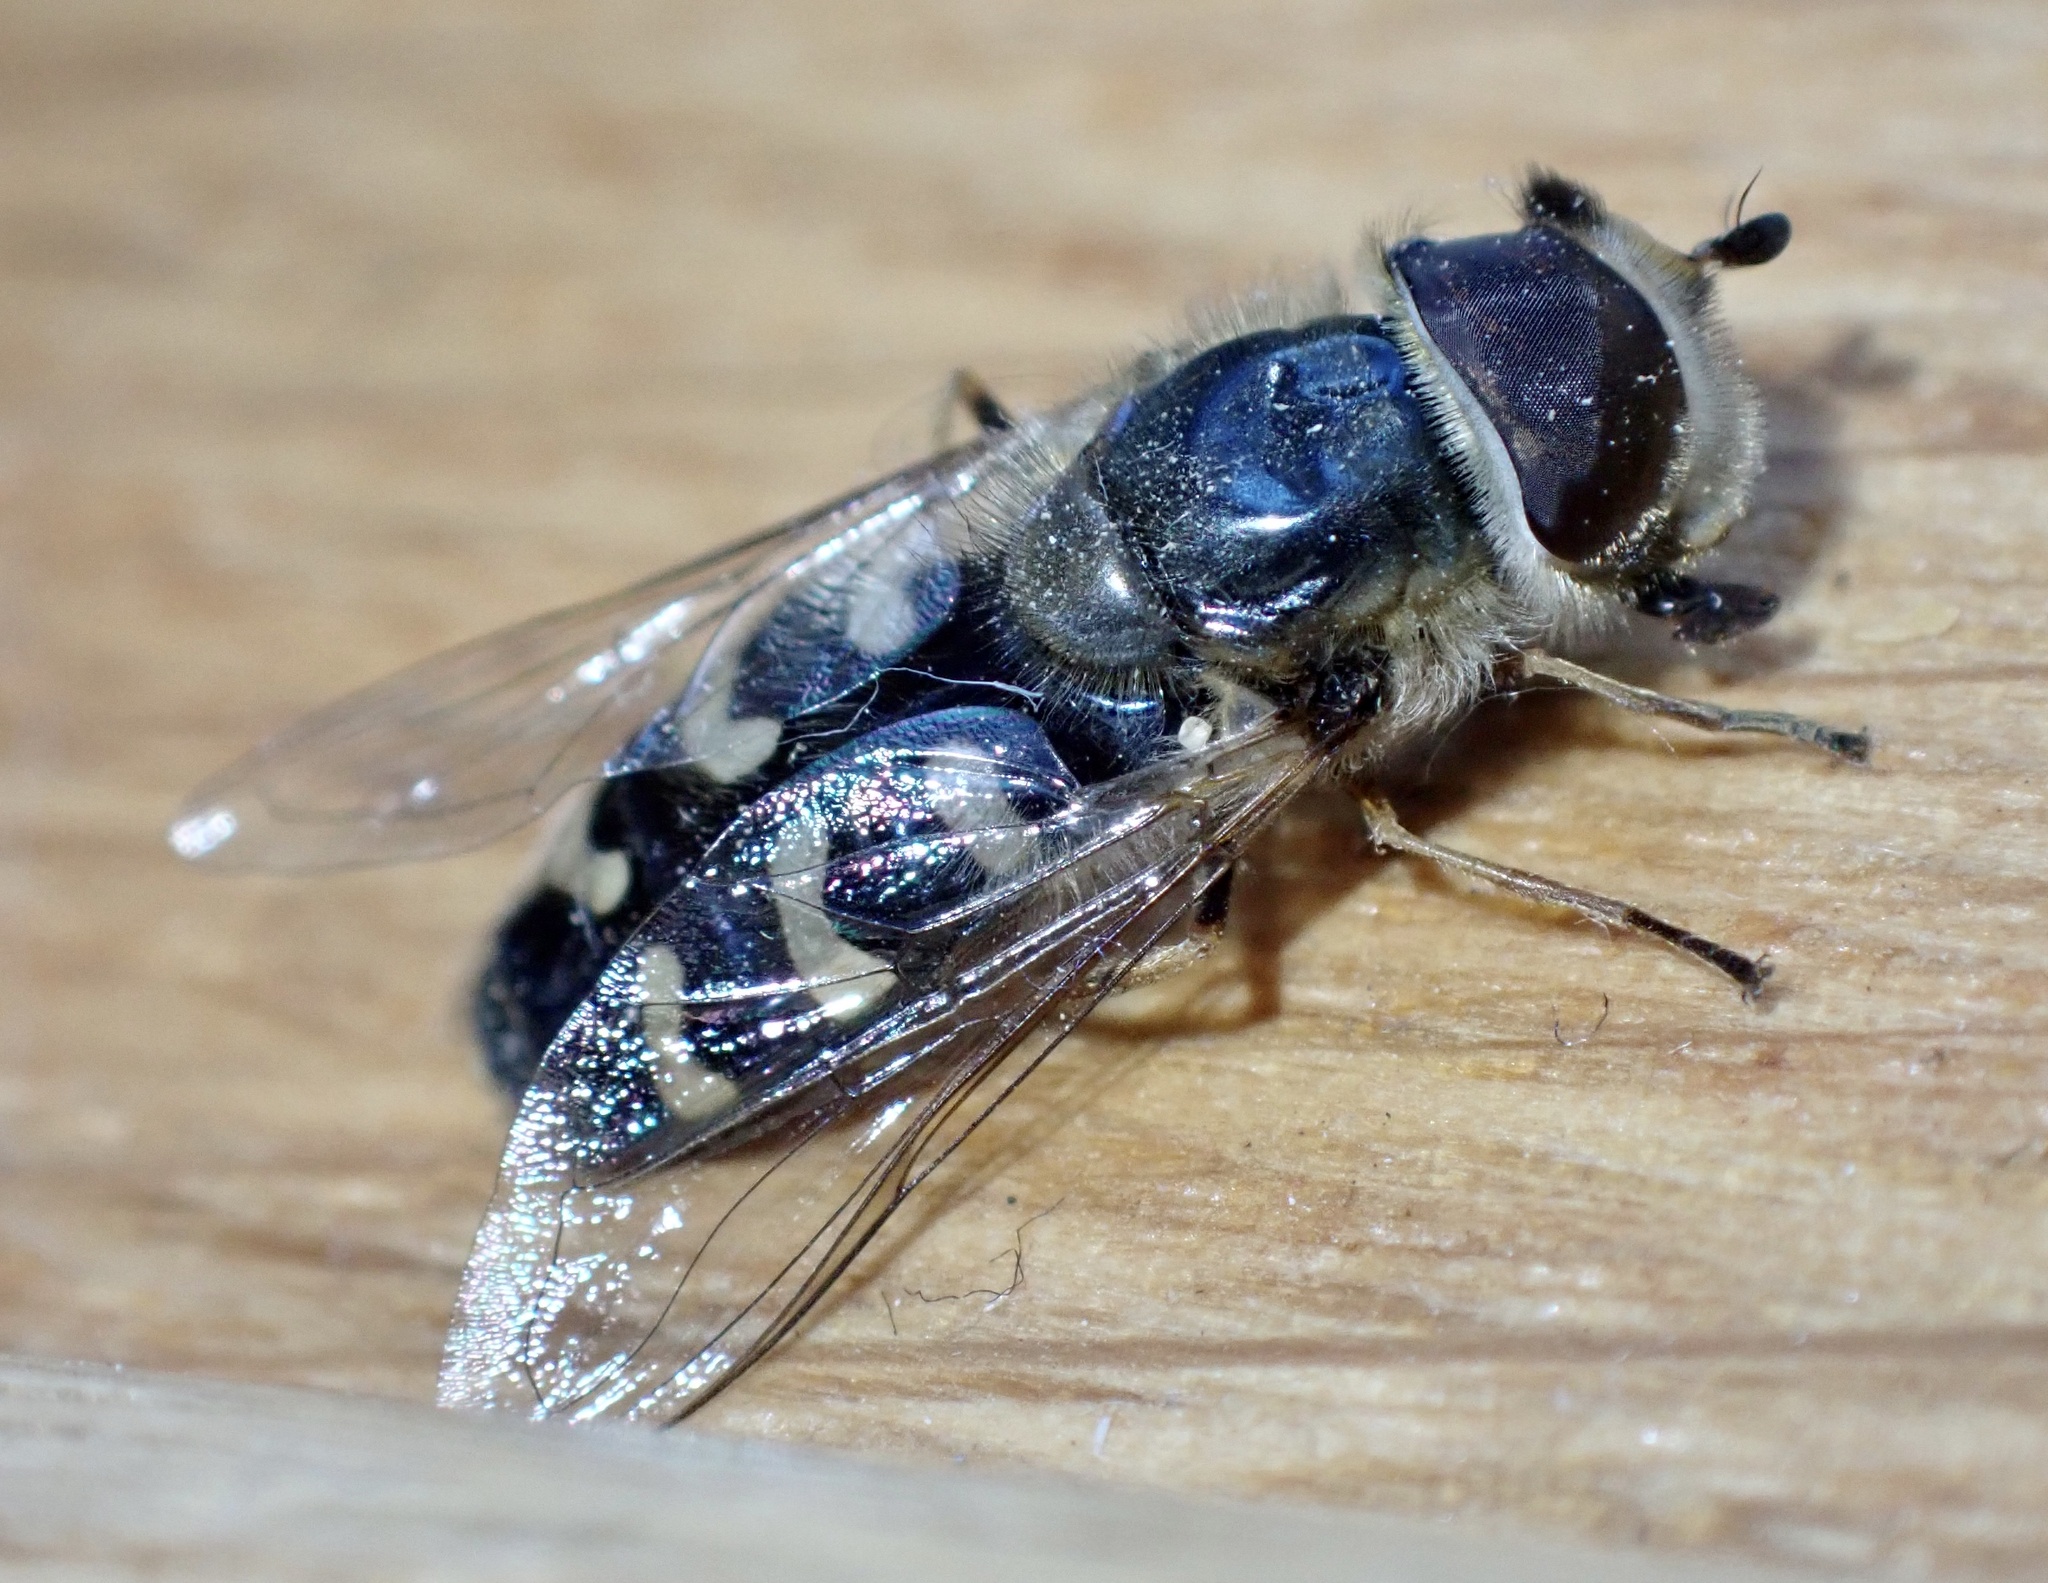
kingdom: Animalia
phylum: Arthropoda
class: Insecta
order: Diptera
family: Syrphidae
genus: Scaeva
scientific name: Scaeva pyrastri
